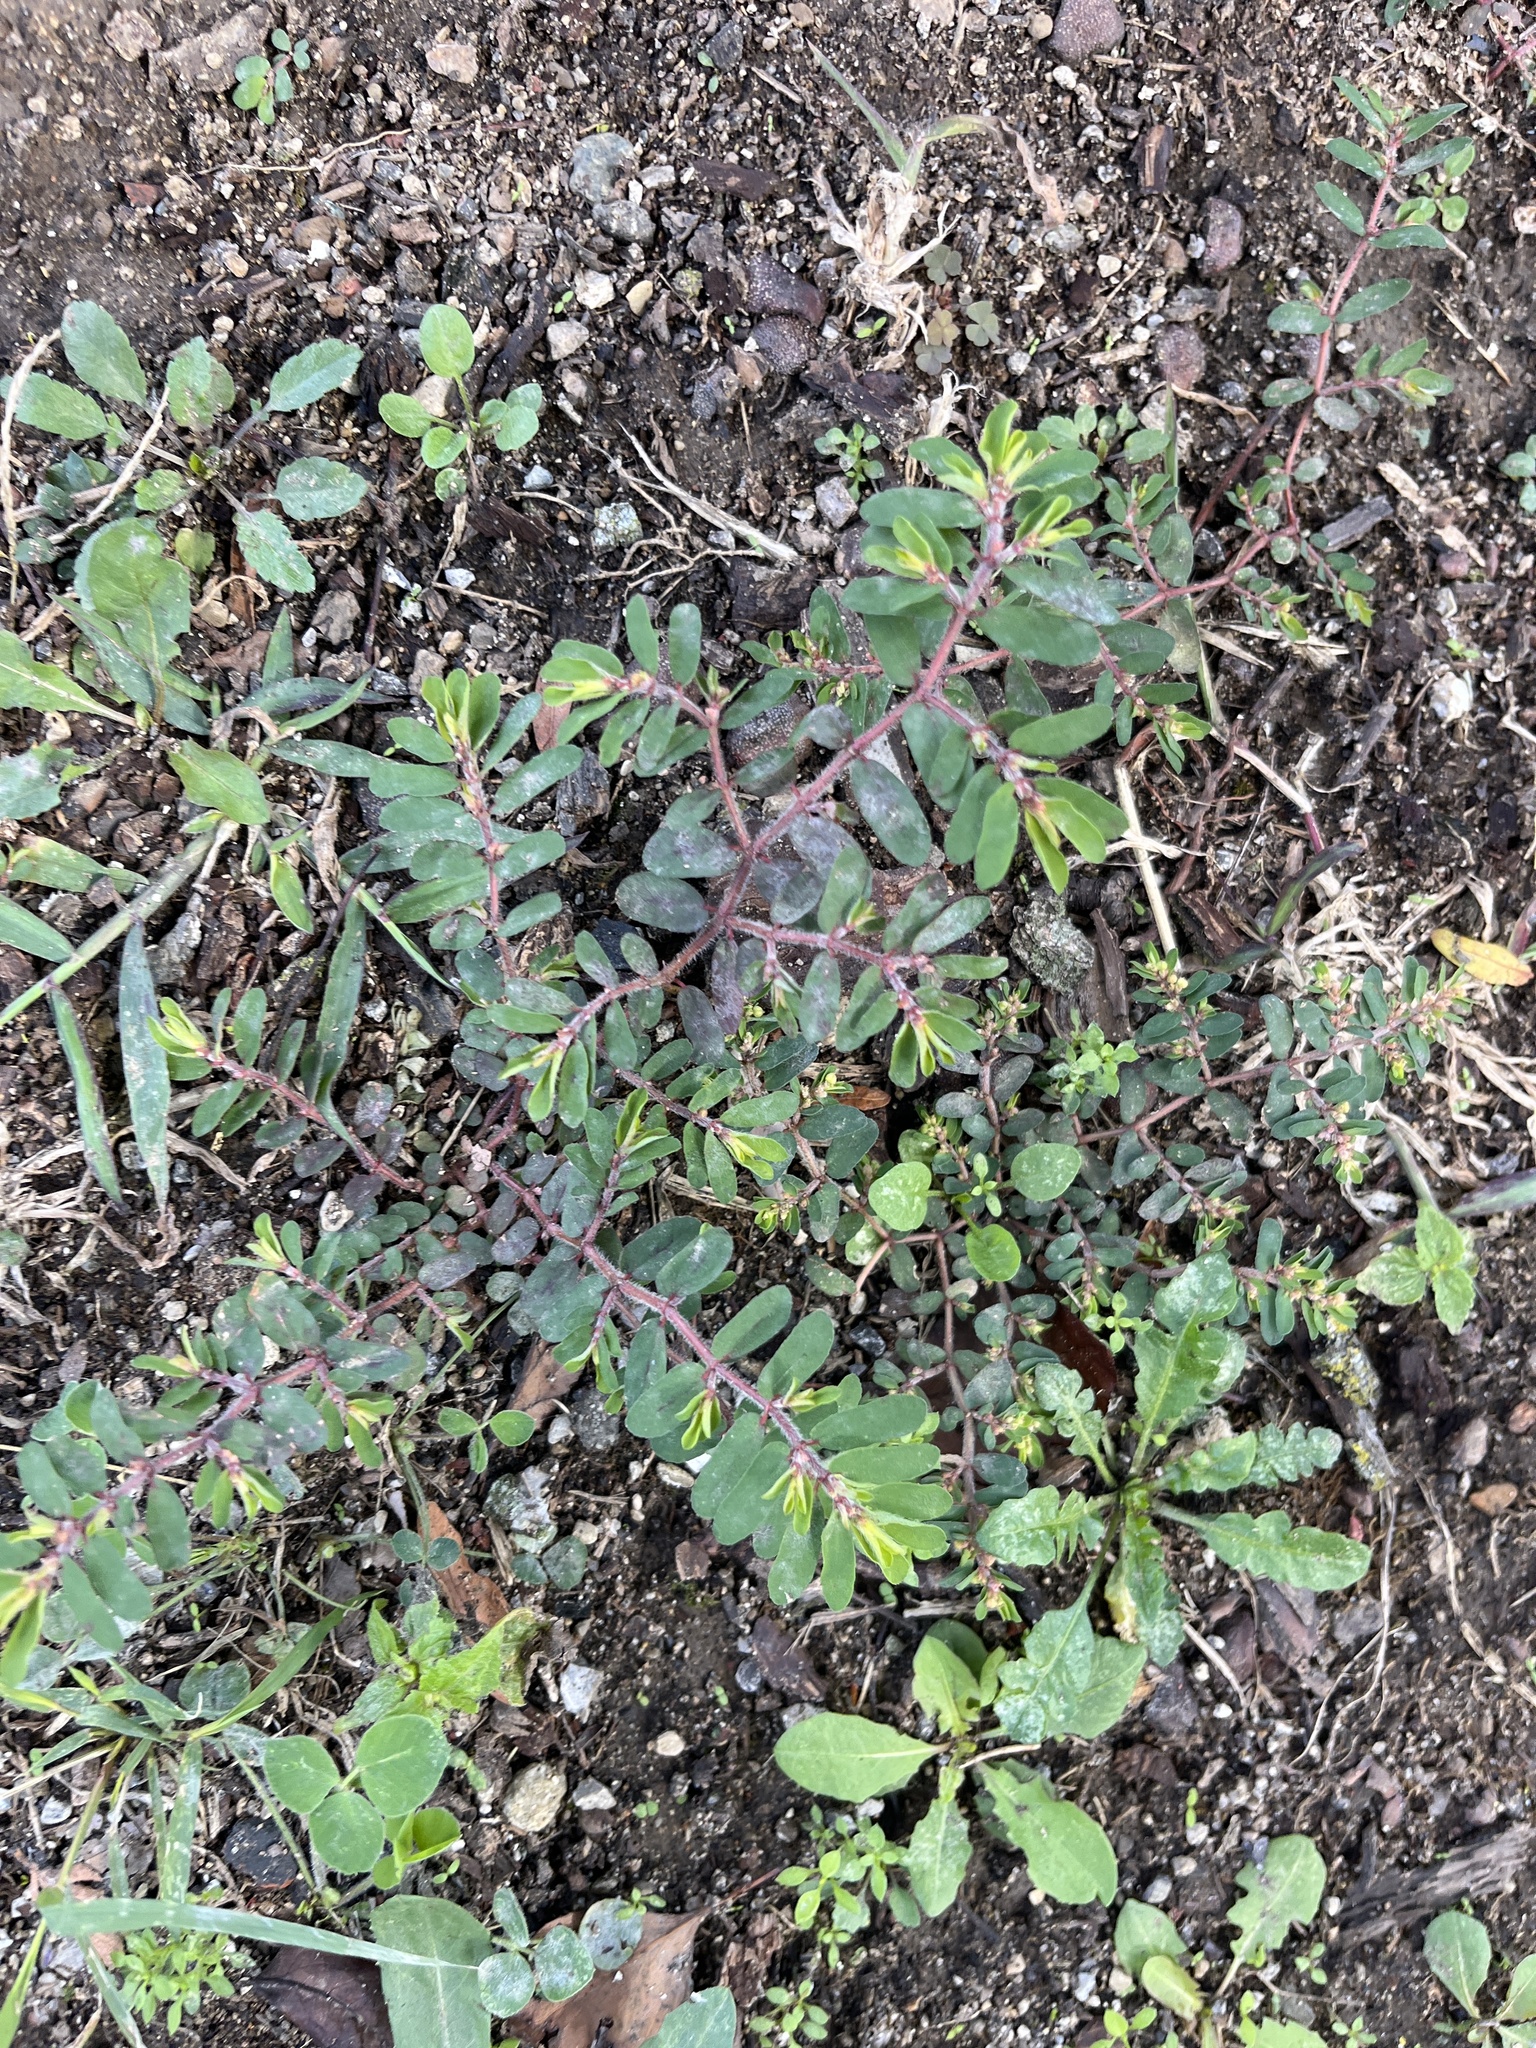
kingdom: Plantae
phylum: Tracheophyta
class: Magnoliopsida
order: Malpighiales
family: Euphorbiaceae
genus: Euphorbia
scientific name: Euphorbia maculata
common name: Spotted spurge
